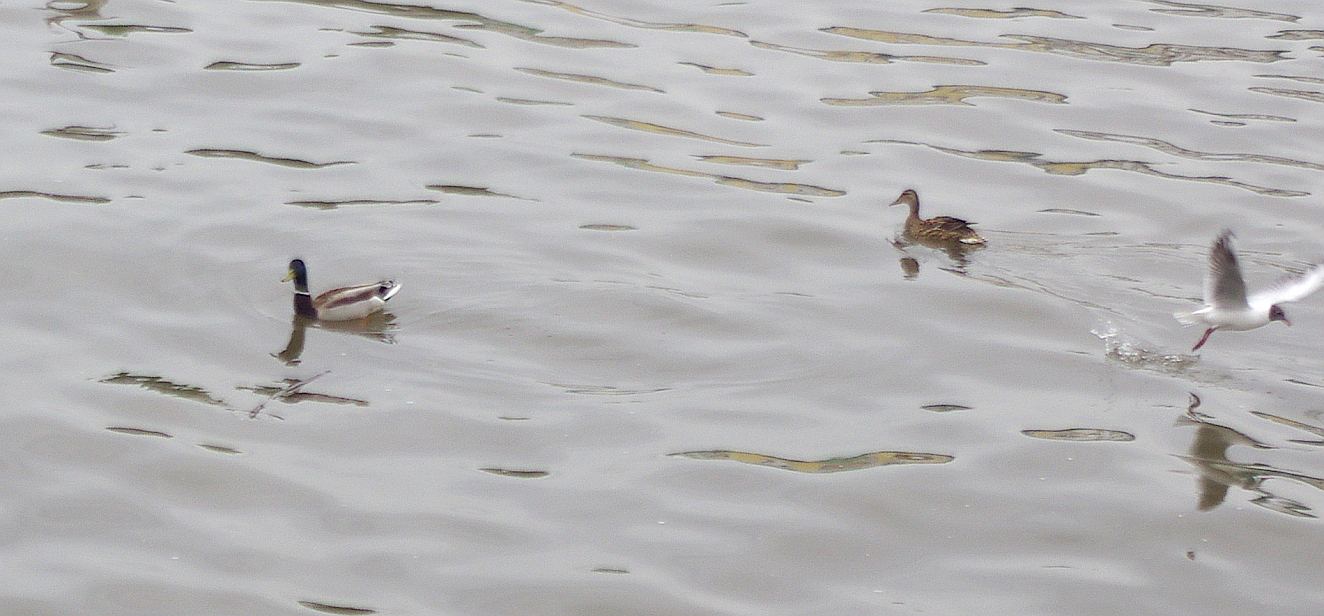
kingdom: Animalia
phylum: Chordata
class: Aves
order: Anseriformes
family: Anatidae
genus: Anas
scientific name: Anas platyrhynchos
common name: Mallard
